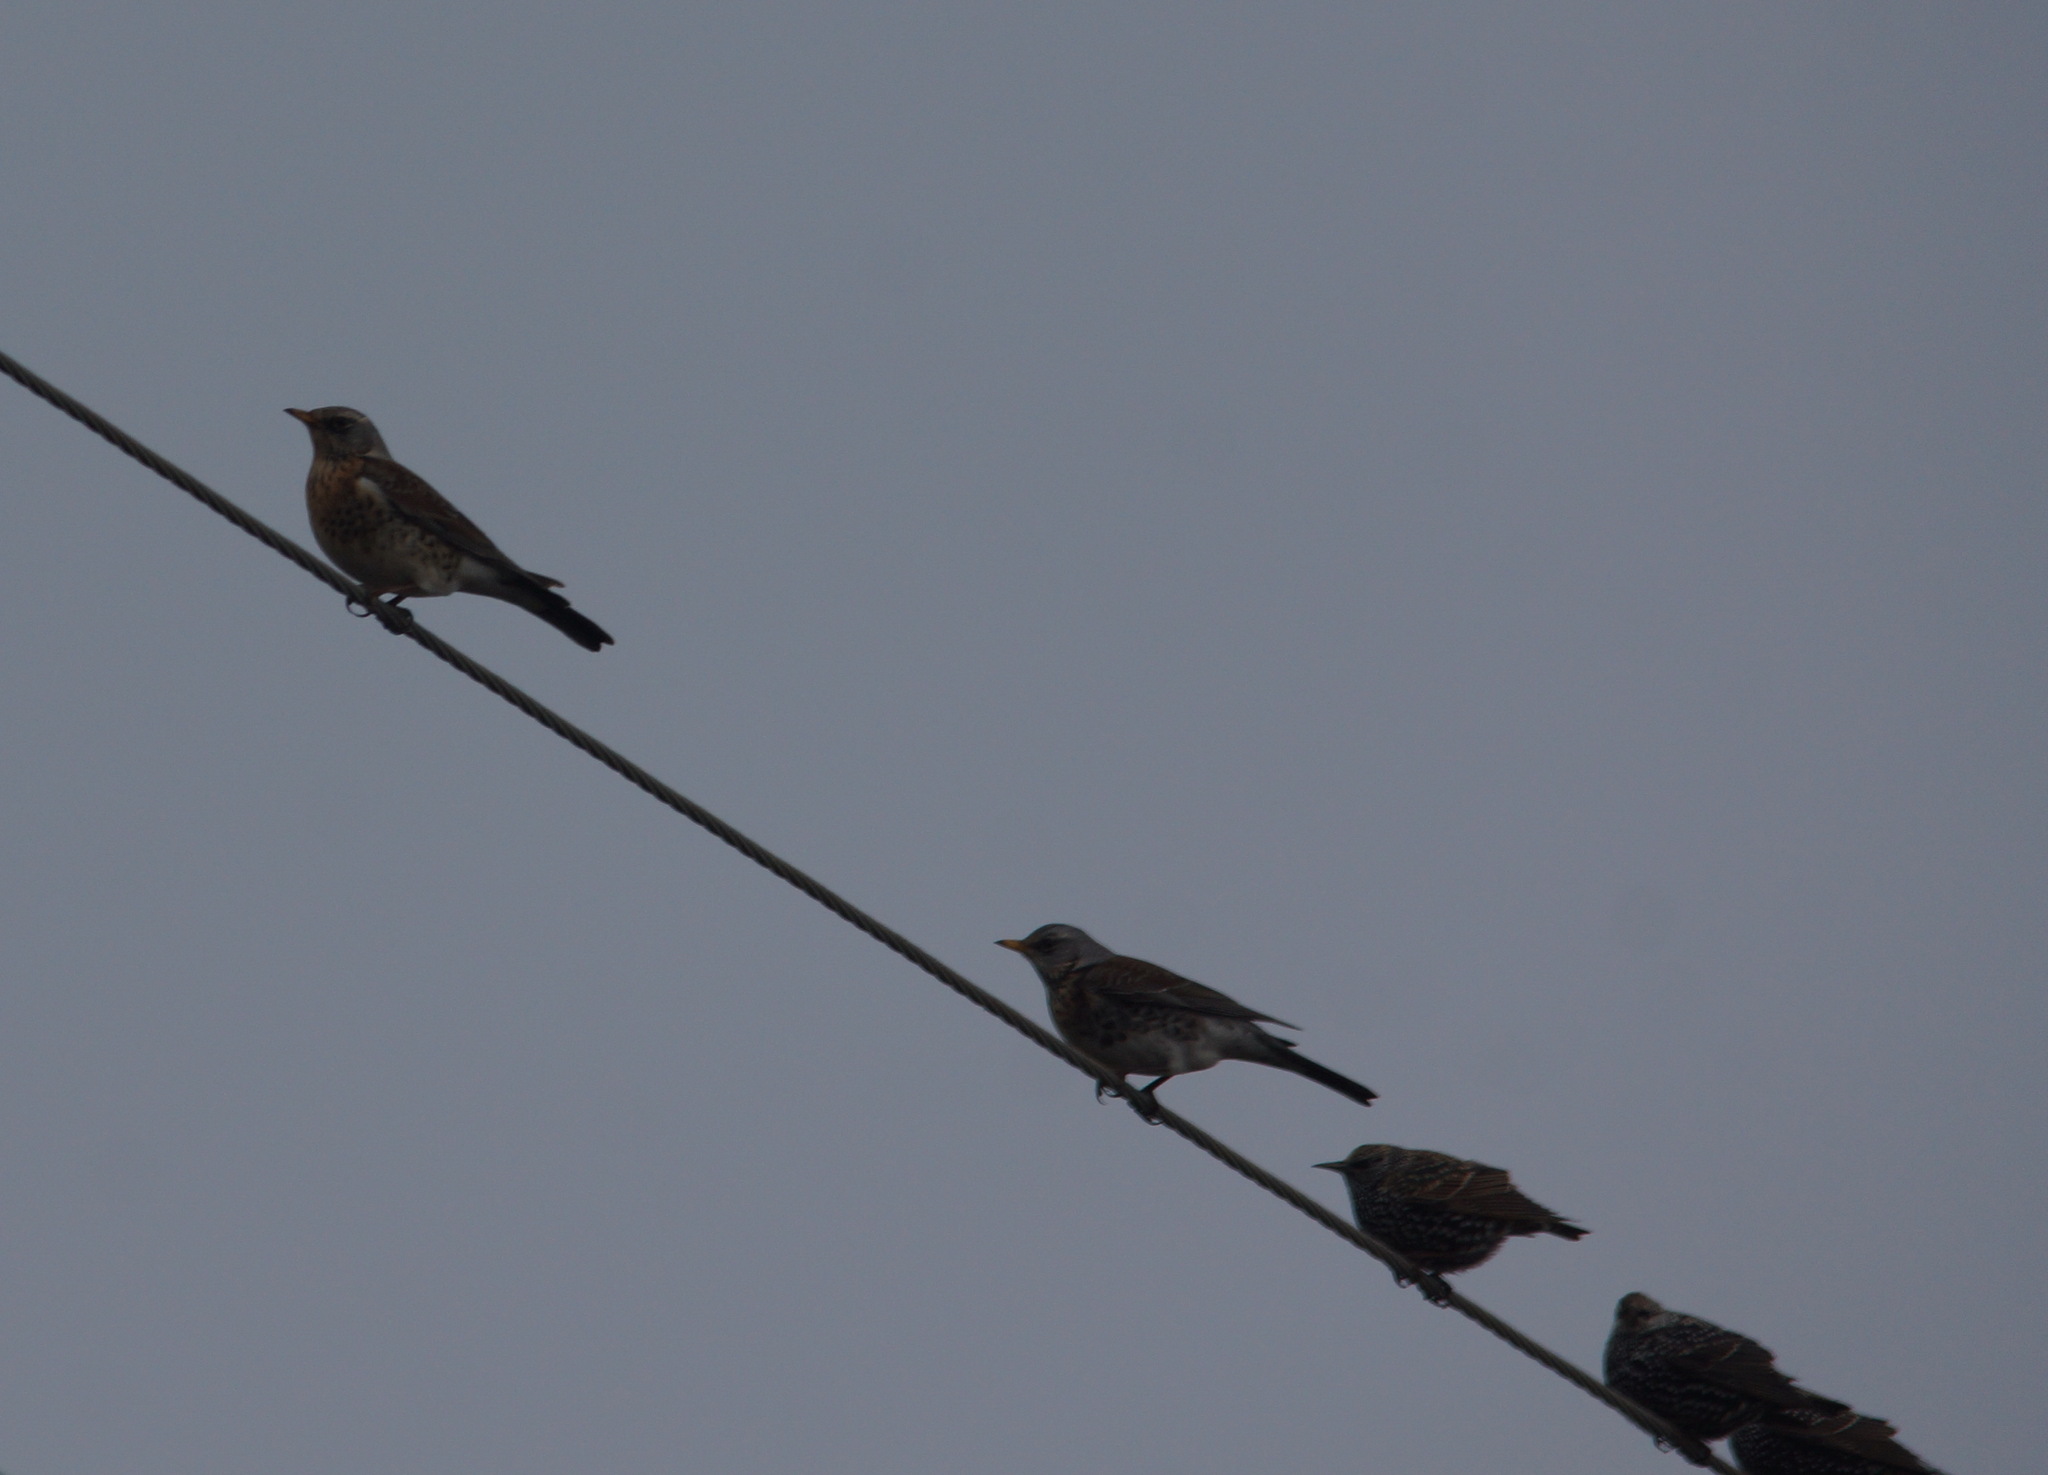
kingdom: Animalia
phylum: Chordata
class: Aves
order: Passeriformes
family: Turdidae
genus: Turdus
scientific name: Turdus pilaris
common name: Fieldfare
